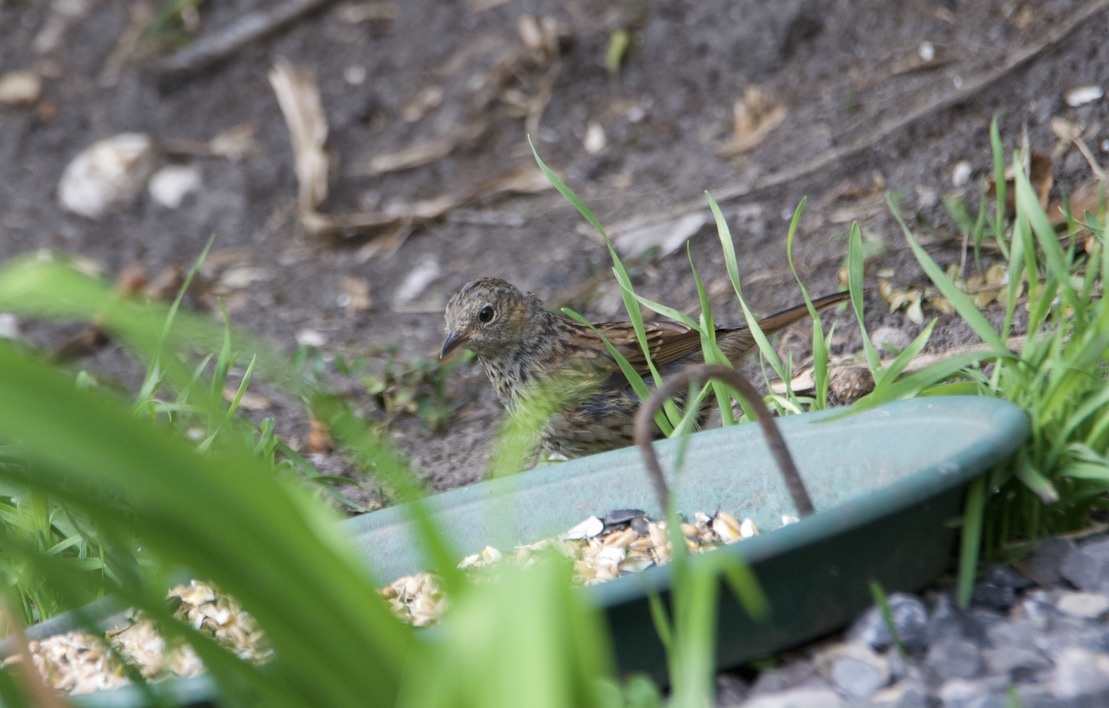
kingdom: Animalia
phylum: Chordata
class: Aves
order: Passeriformes
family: Prunellidae
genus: Prunella
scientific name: Prunella modularis
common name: Dunnock
